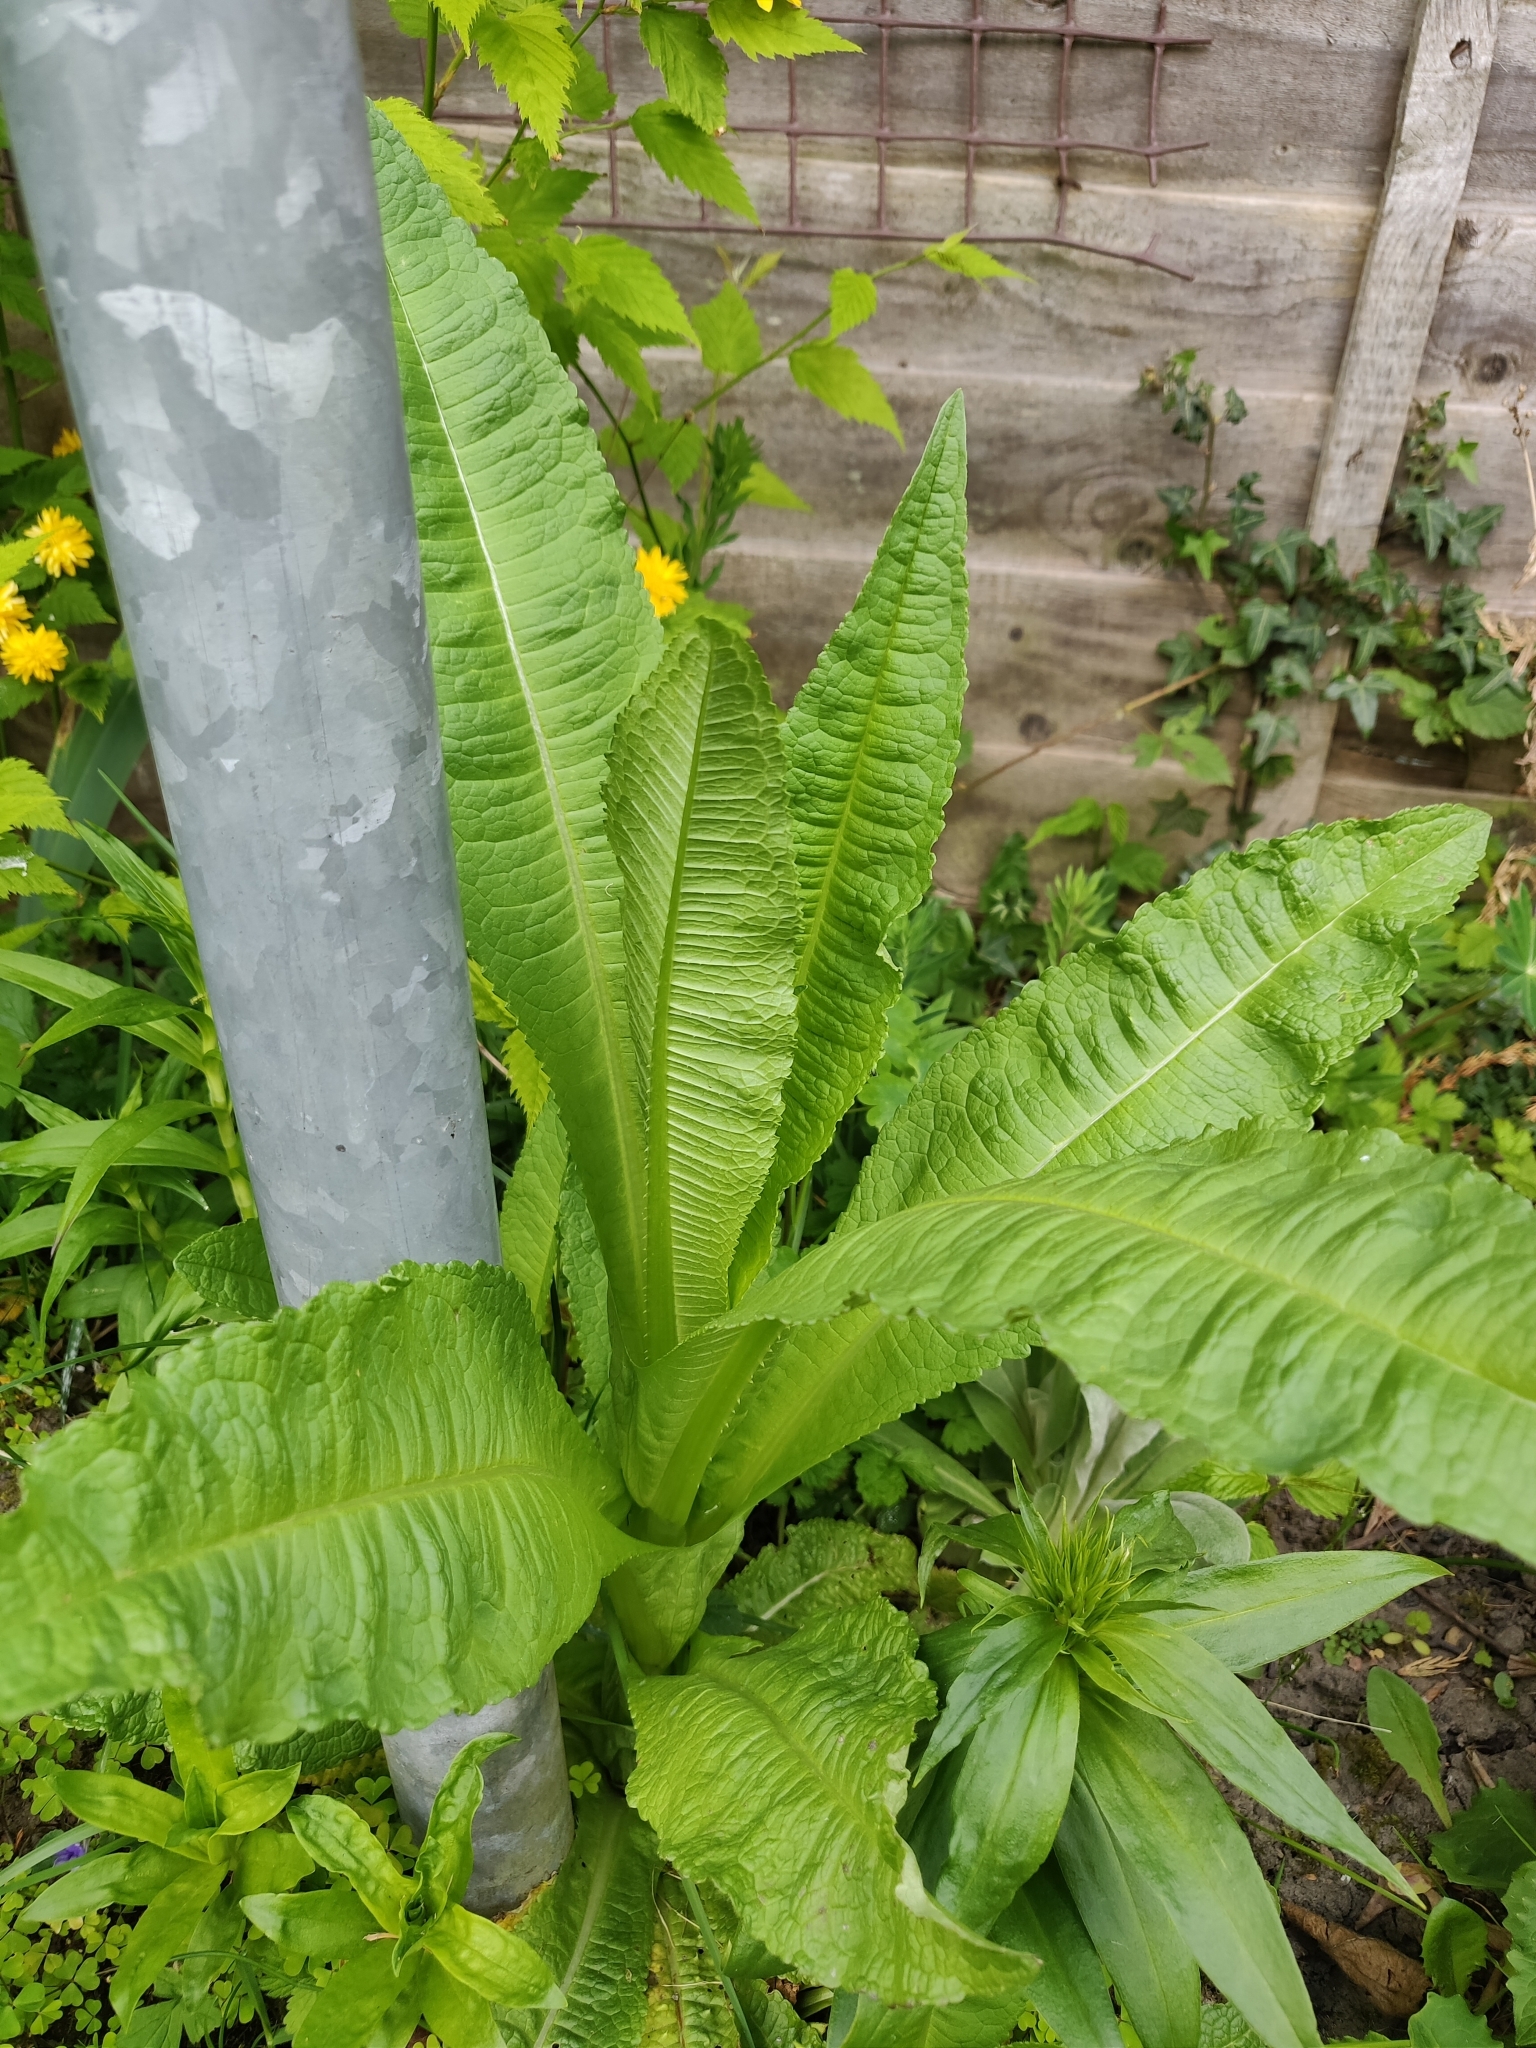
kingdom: Plantae
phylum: Tracheophyta
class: Magnoliopsida
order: Dipsacales
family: Caprifoliaceae
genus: Dipsacus
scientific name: Dipsacus fullonum
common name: Teasel
